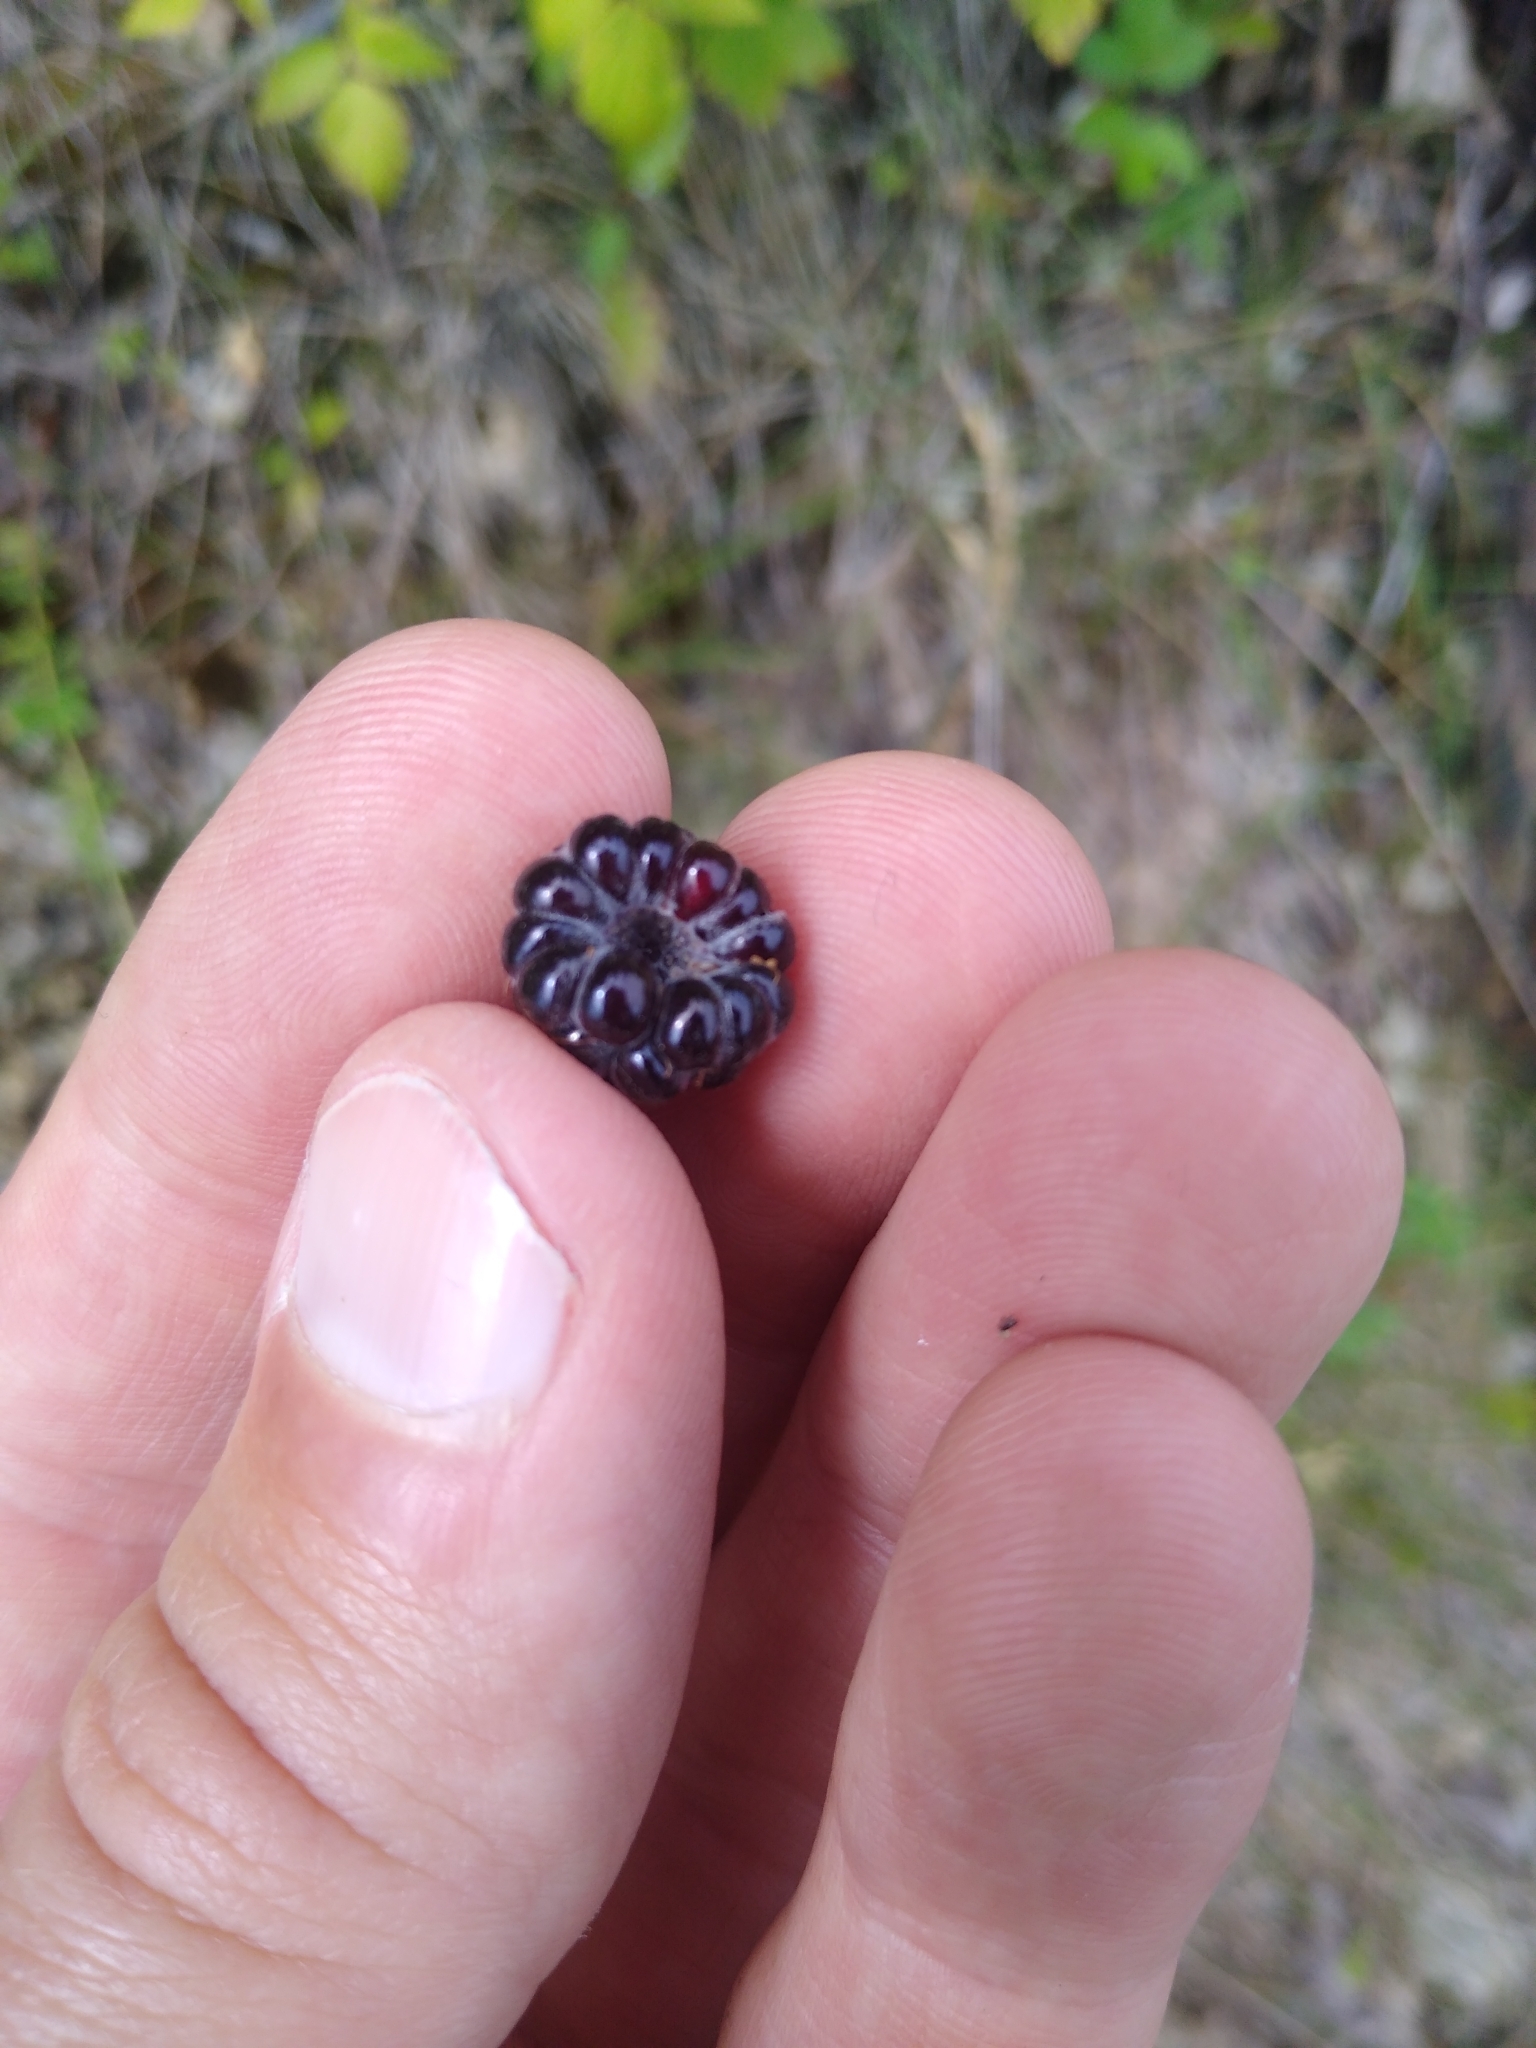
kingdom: Plantae
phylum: Tracheophyta
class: Magnoliopsida
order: Rosales
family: Rosaceae
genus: Rubus
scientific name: Rubus occidentalis
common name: Black raspberry
